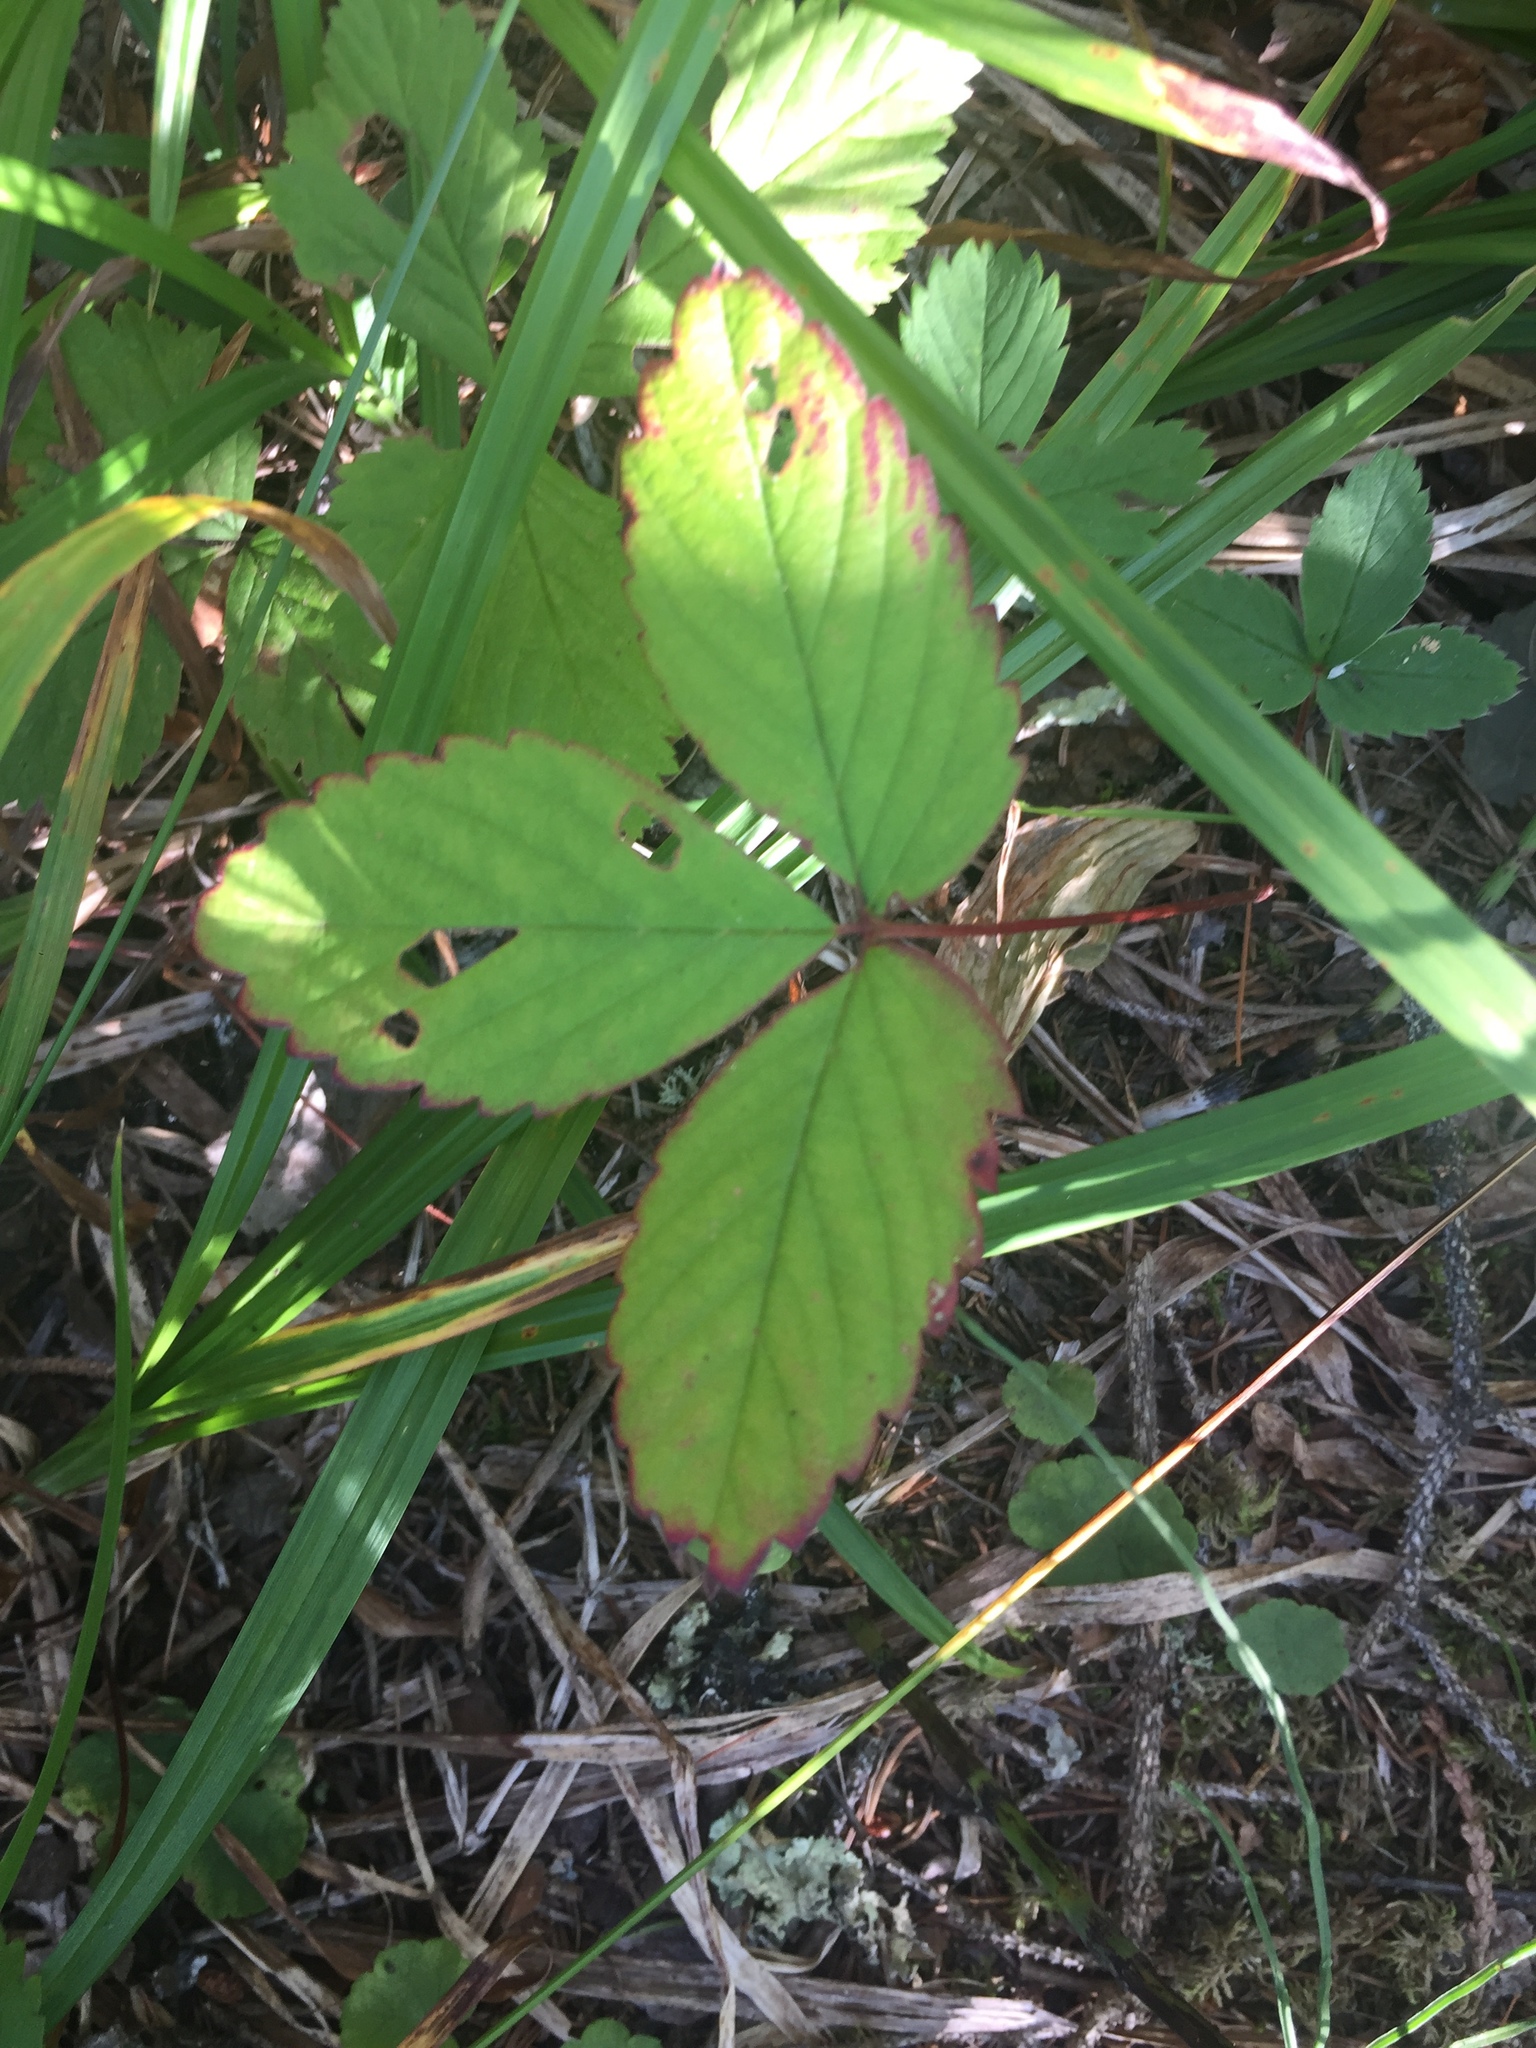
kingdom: Plantae
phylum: Tracheophyta
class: Magnoliopsida
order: Rosales
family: Rosaceae
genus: Fragaria
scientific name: Fragaria virginiana
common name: Thickleaved wild strawberry
